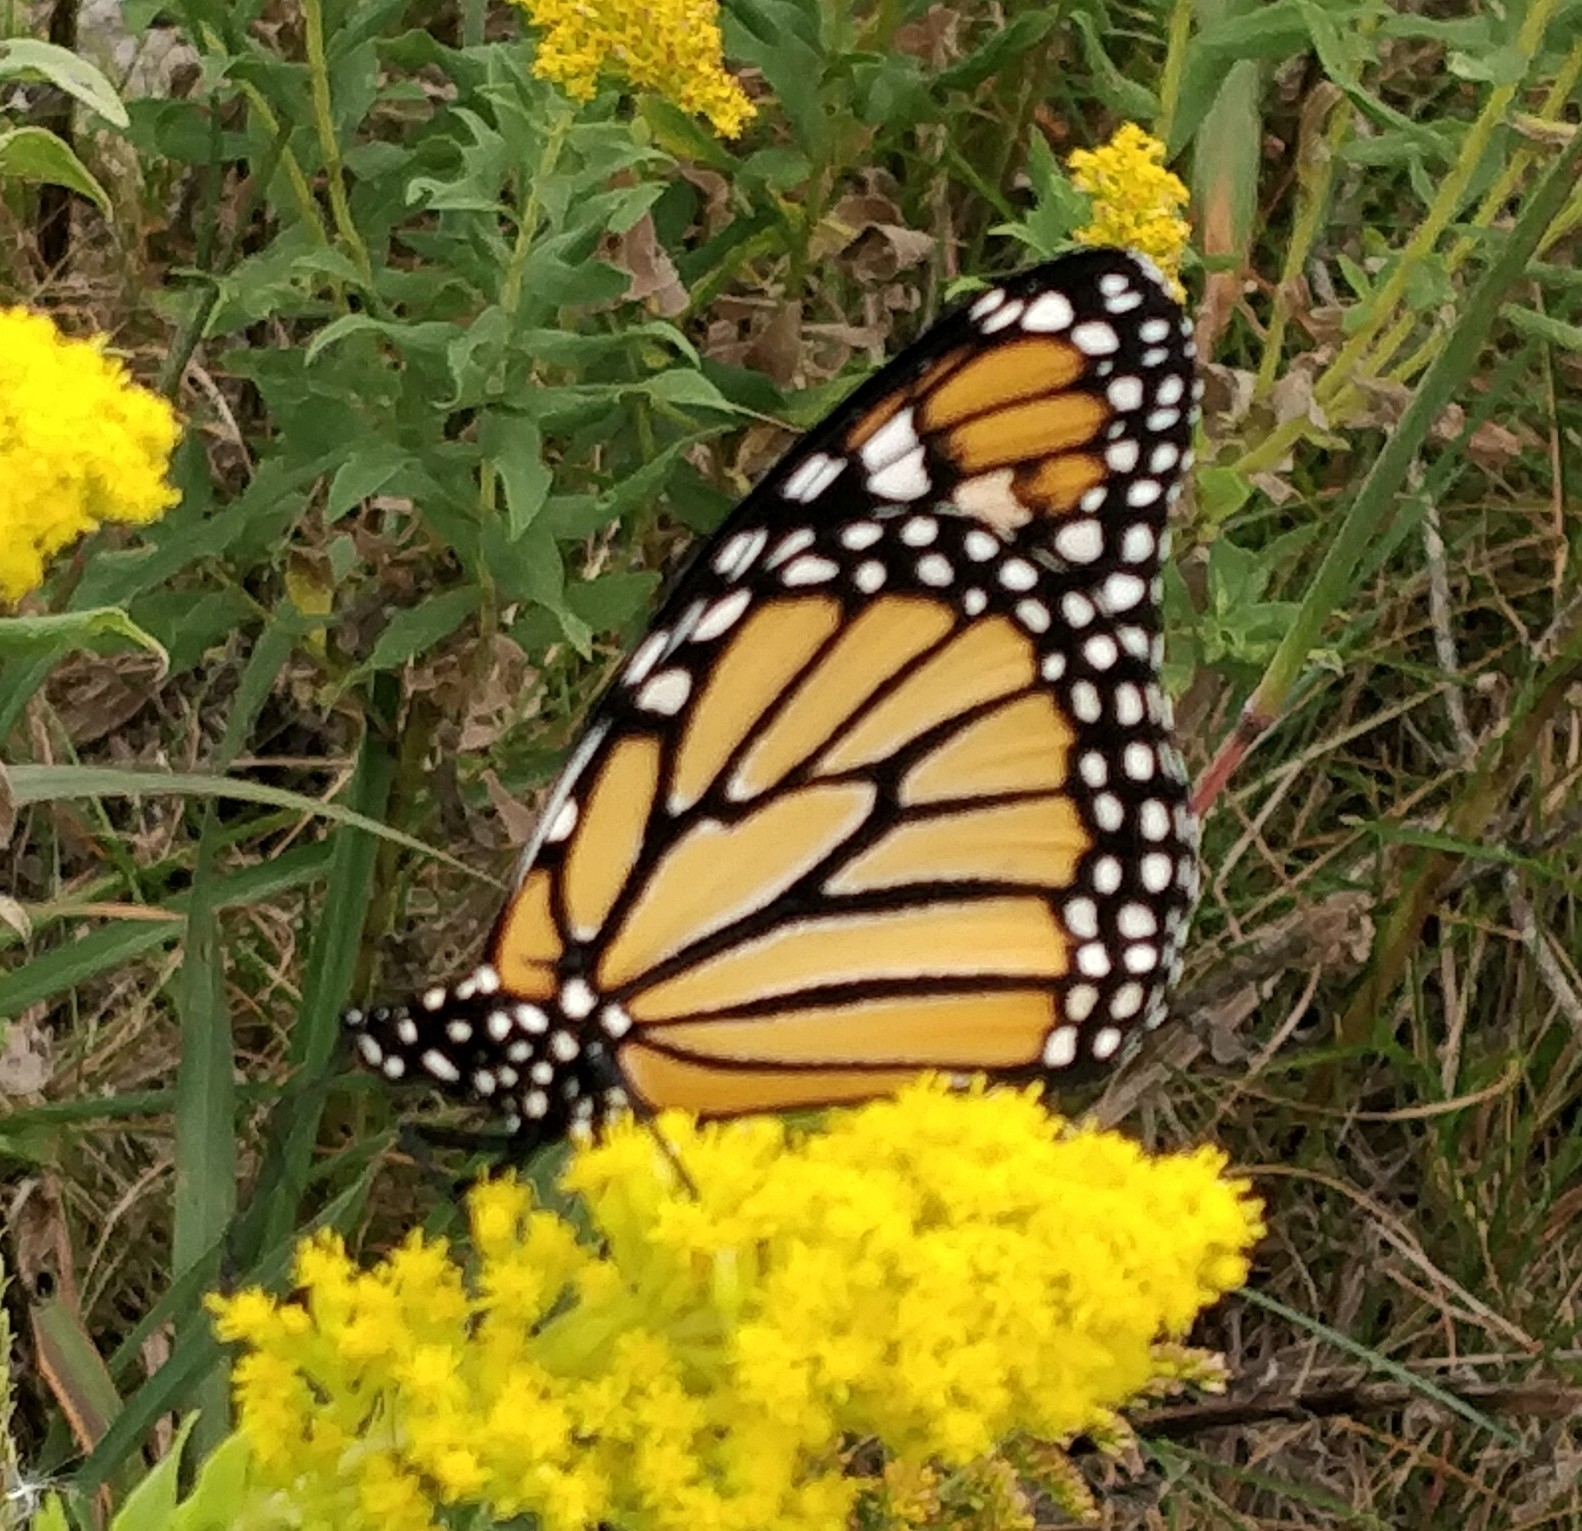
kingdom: Animalia
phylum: Arthropoda
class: Insecta
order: Lepidoptera
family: Nymphalidae
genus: Danaus
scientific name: Danaus plexippus
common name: Monarch
